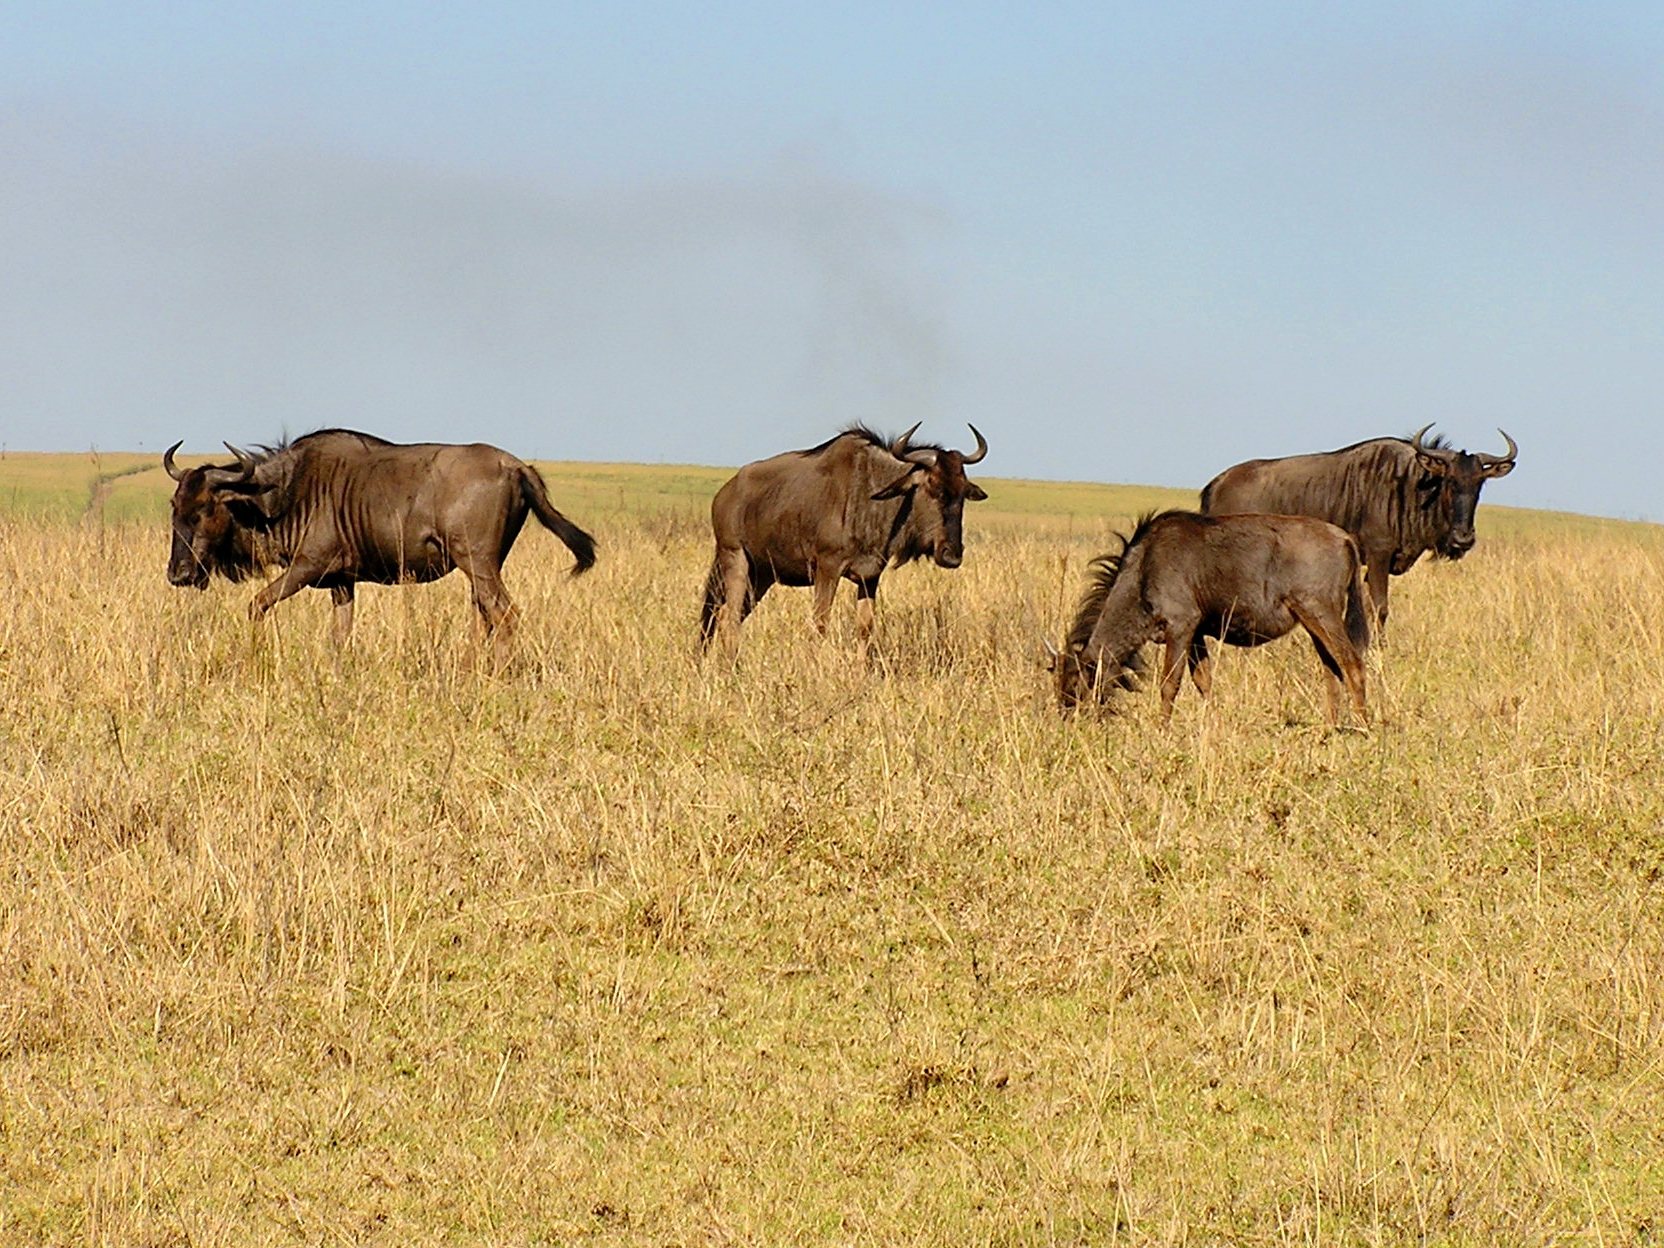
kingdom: Animalia
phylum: Chordata
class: Mammalia
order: Artiodactyla
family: Bovidae
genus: Connochaetes
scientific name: Connochaetes taurinus
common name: Blue wildebeest
